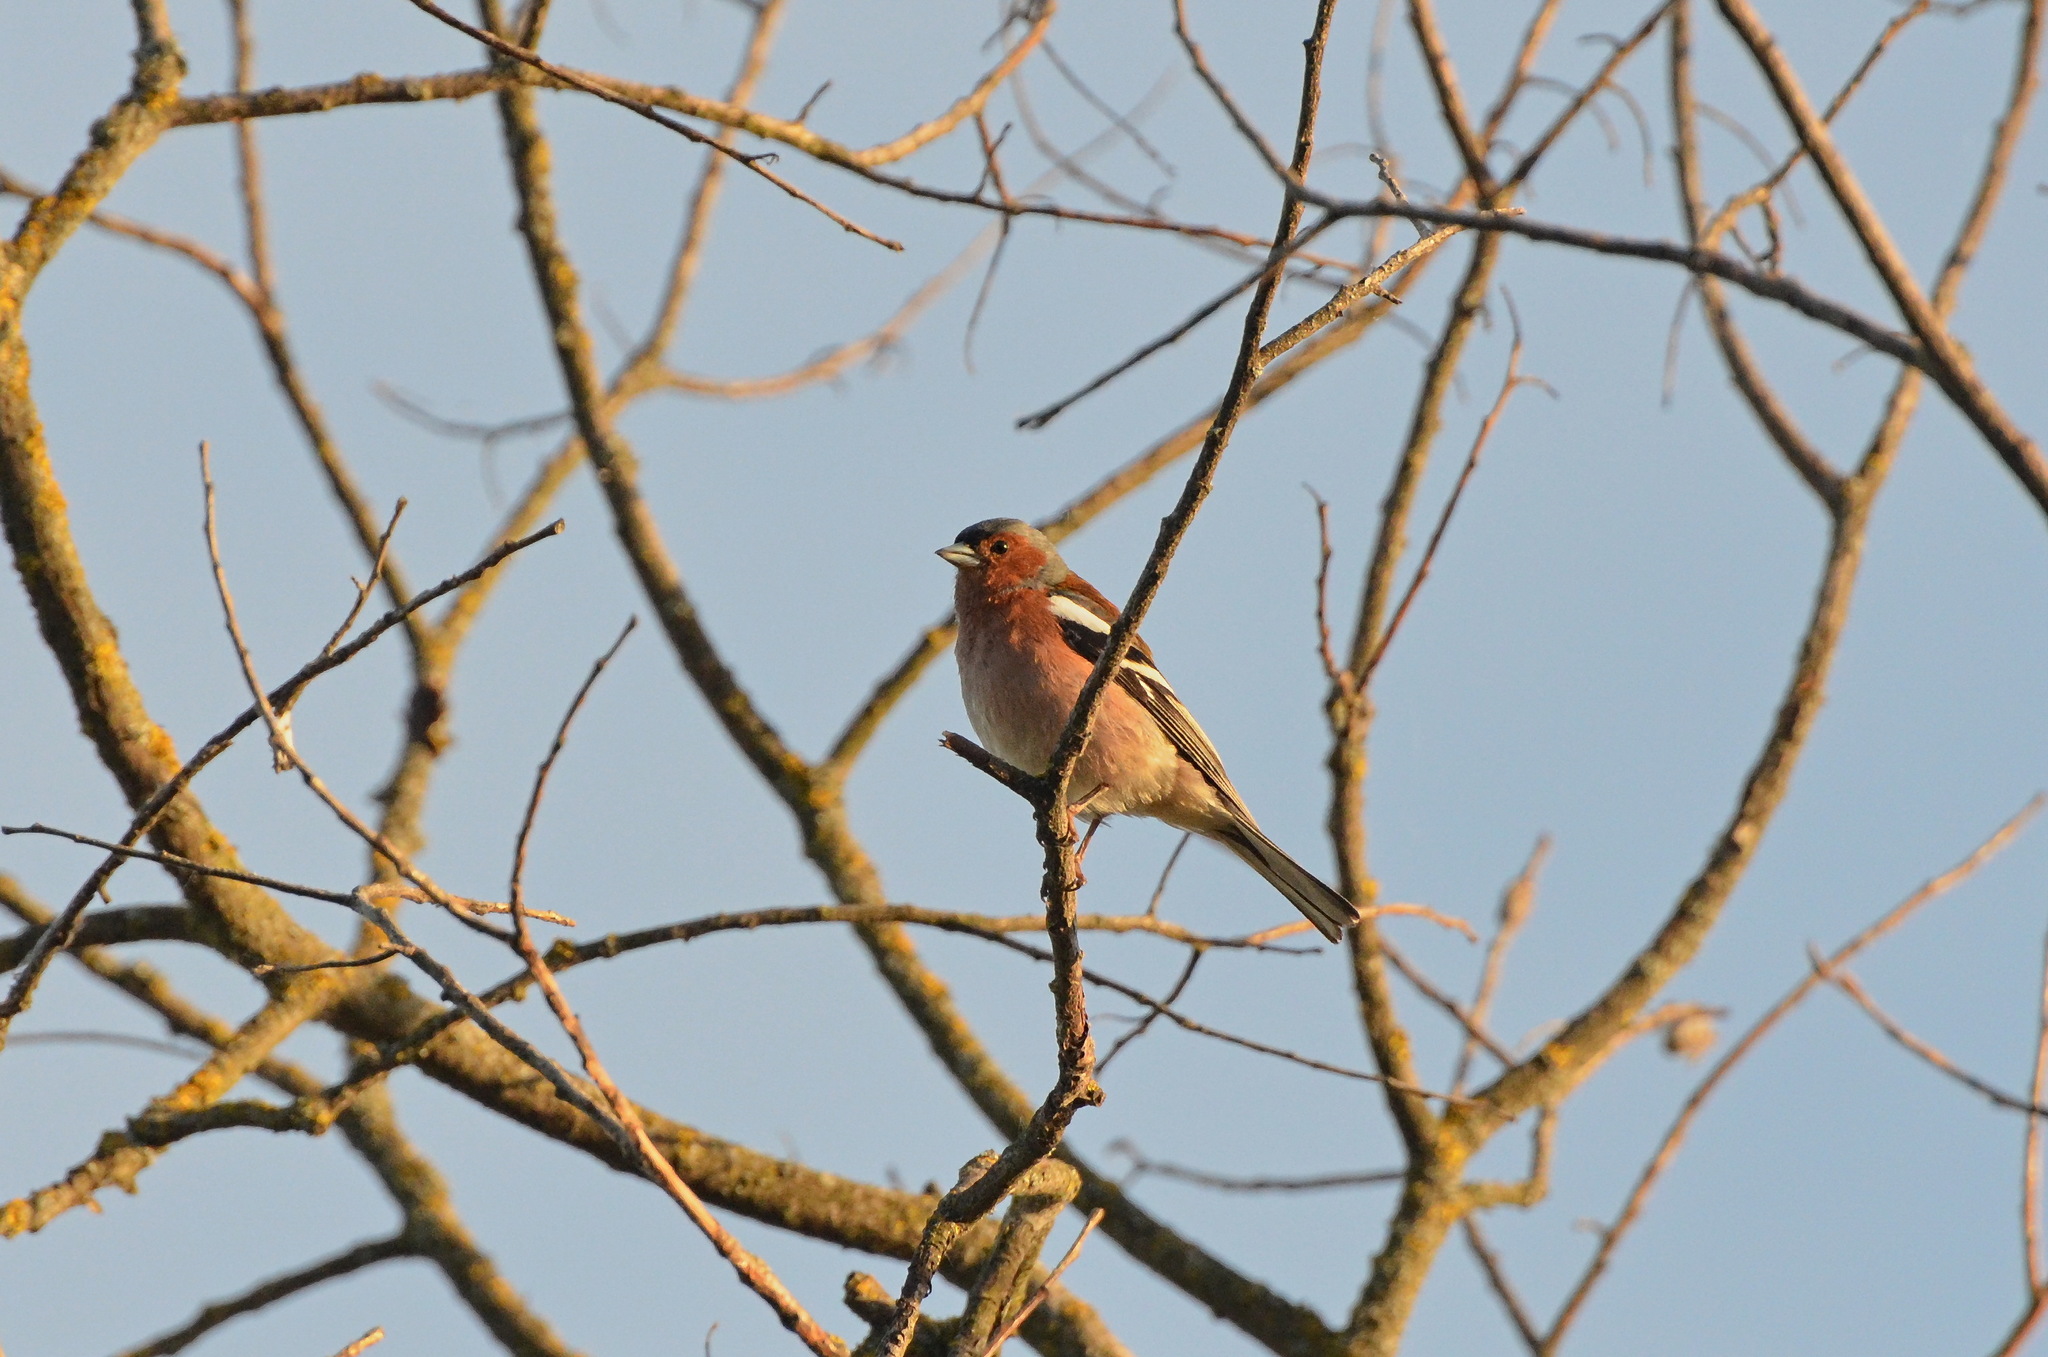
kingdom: Animalia
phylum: Chordata
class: Aves
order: Passeriformes
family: Fringillidae
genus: Fringilla
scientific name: Fringilla coelebs
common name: Common chaffinch
